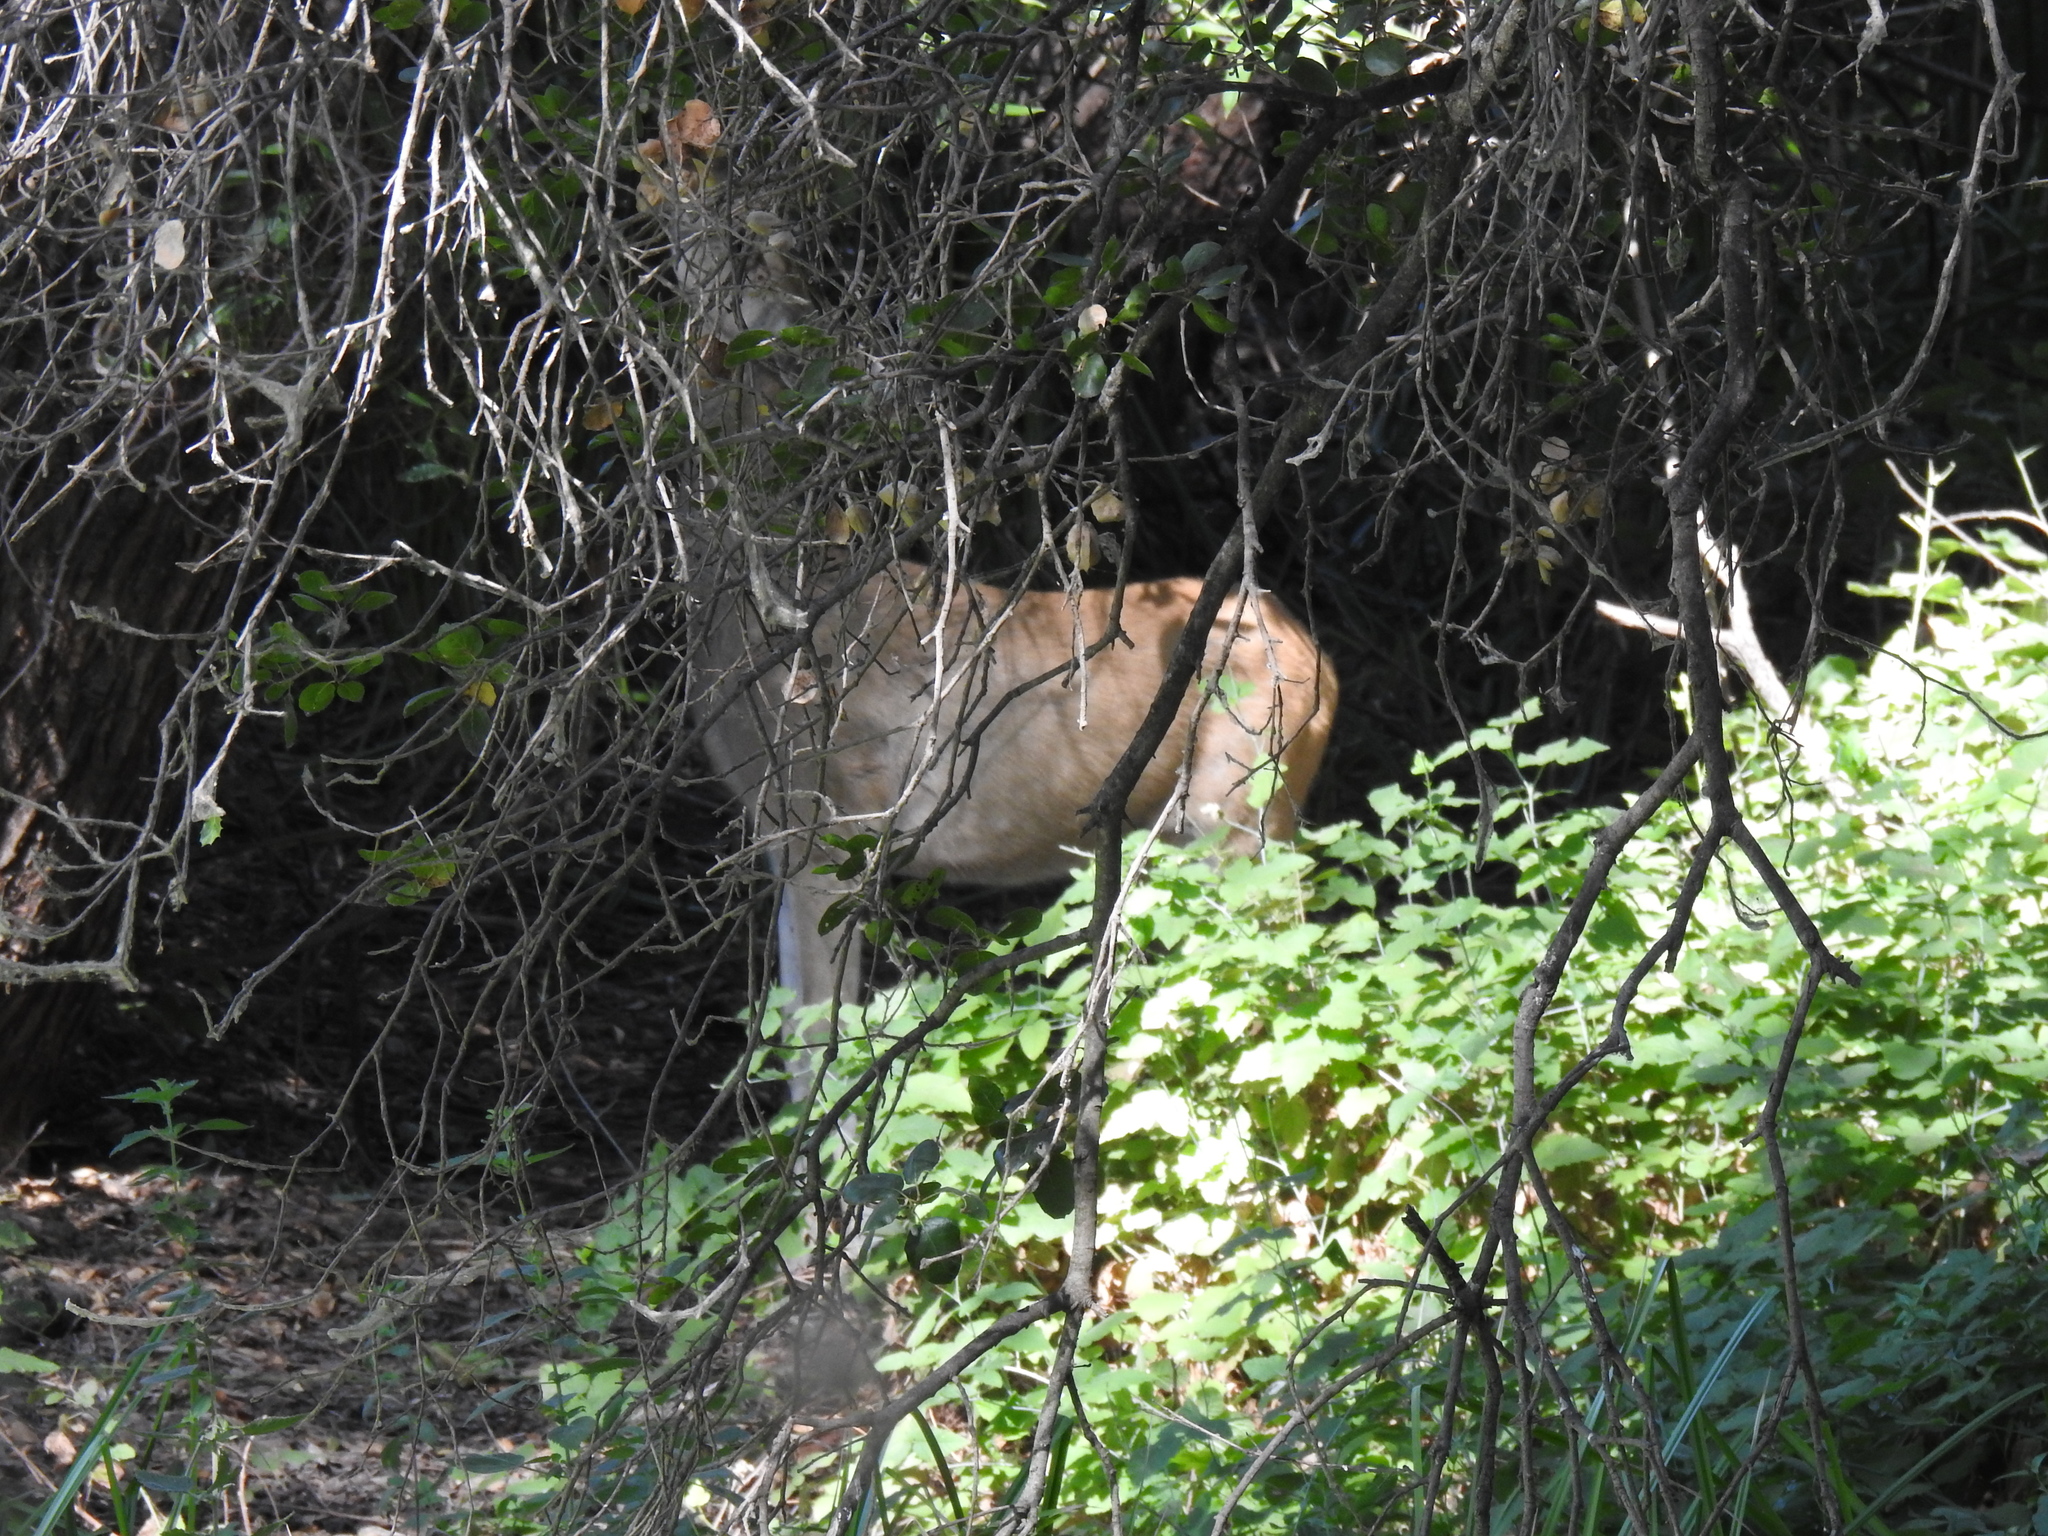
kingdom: Animalia
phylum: Chordata
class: Mammalia
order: Artiodactyla
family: Cervidae
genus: Odocoileus
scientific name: Odocoileus hemionus
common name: Mule deer
